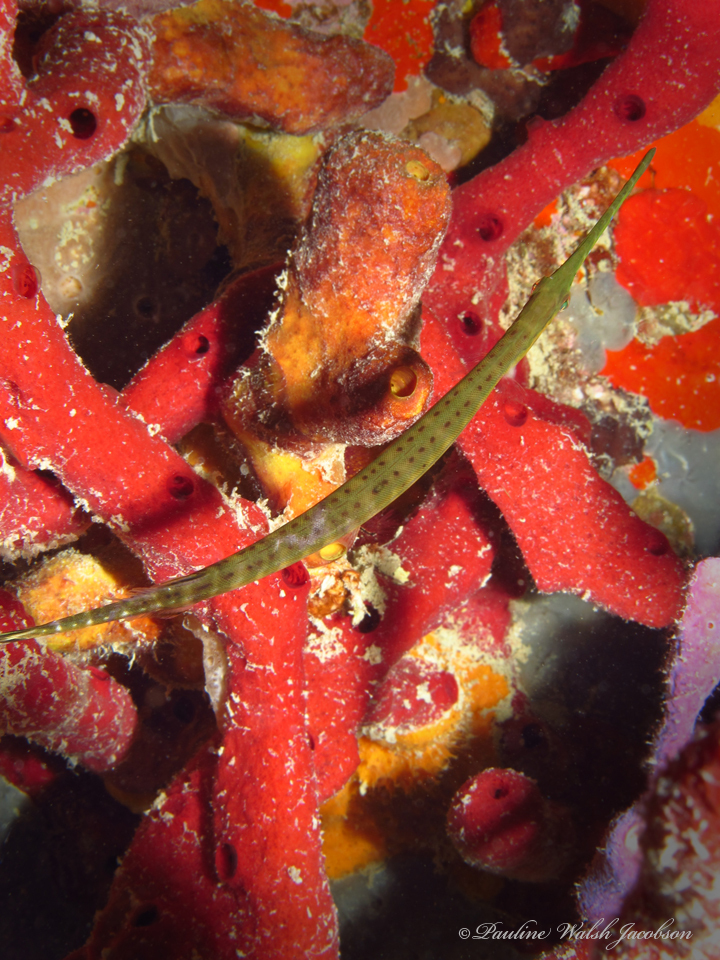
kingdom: Animalia
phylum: Chordata
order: Syngnathiformes
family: Aulostomidae
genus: Aulostomus
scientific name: Aulostomus maculatus
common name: West atlantic trumpetfish
